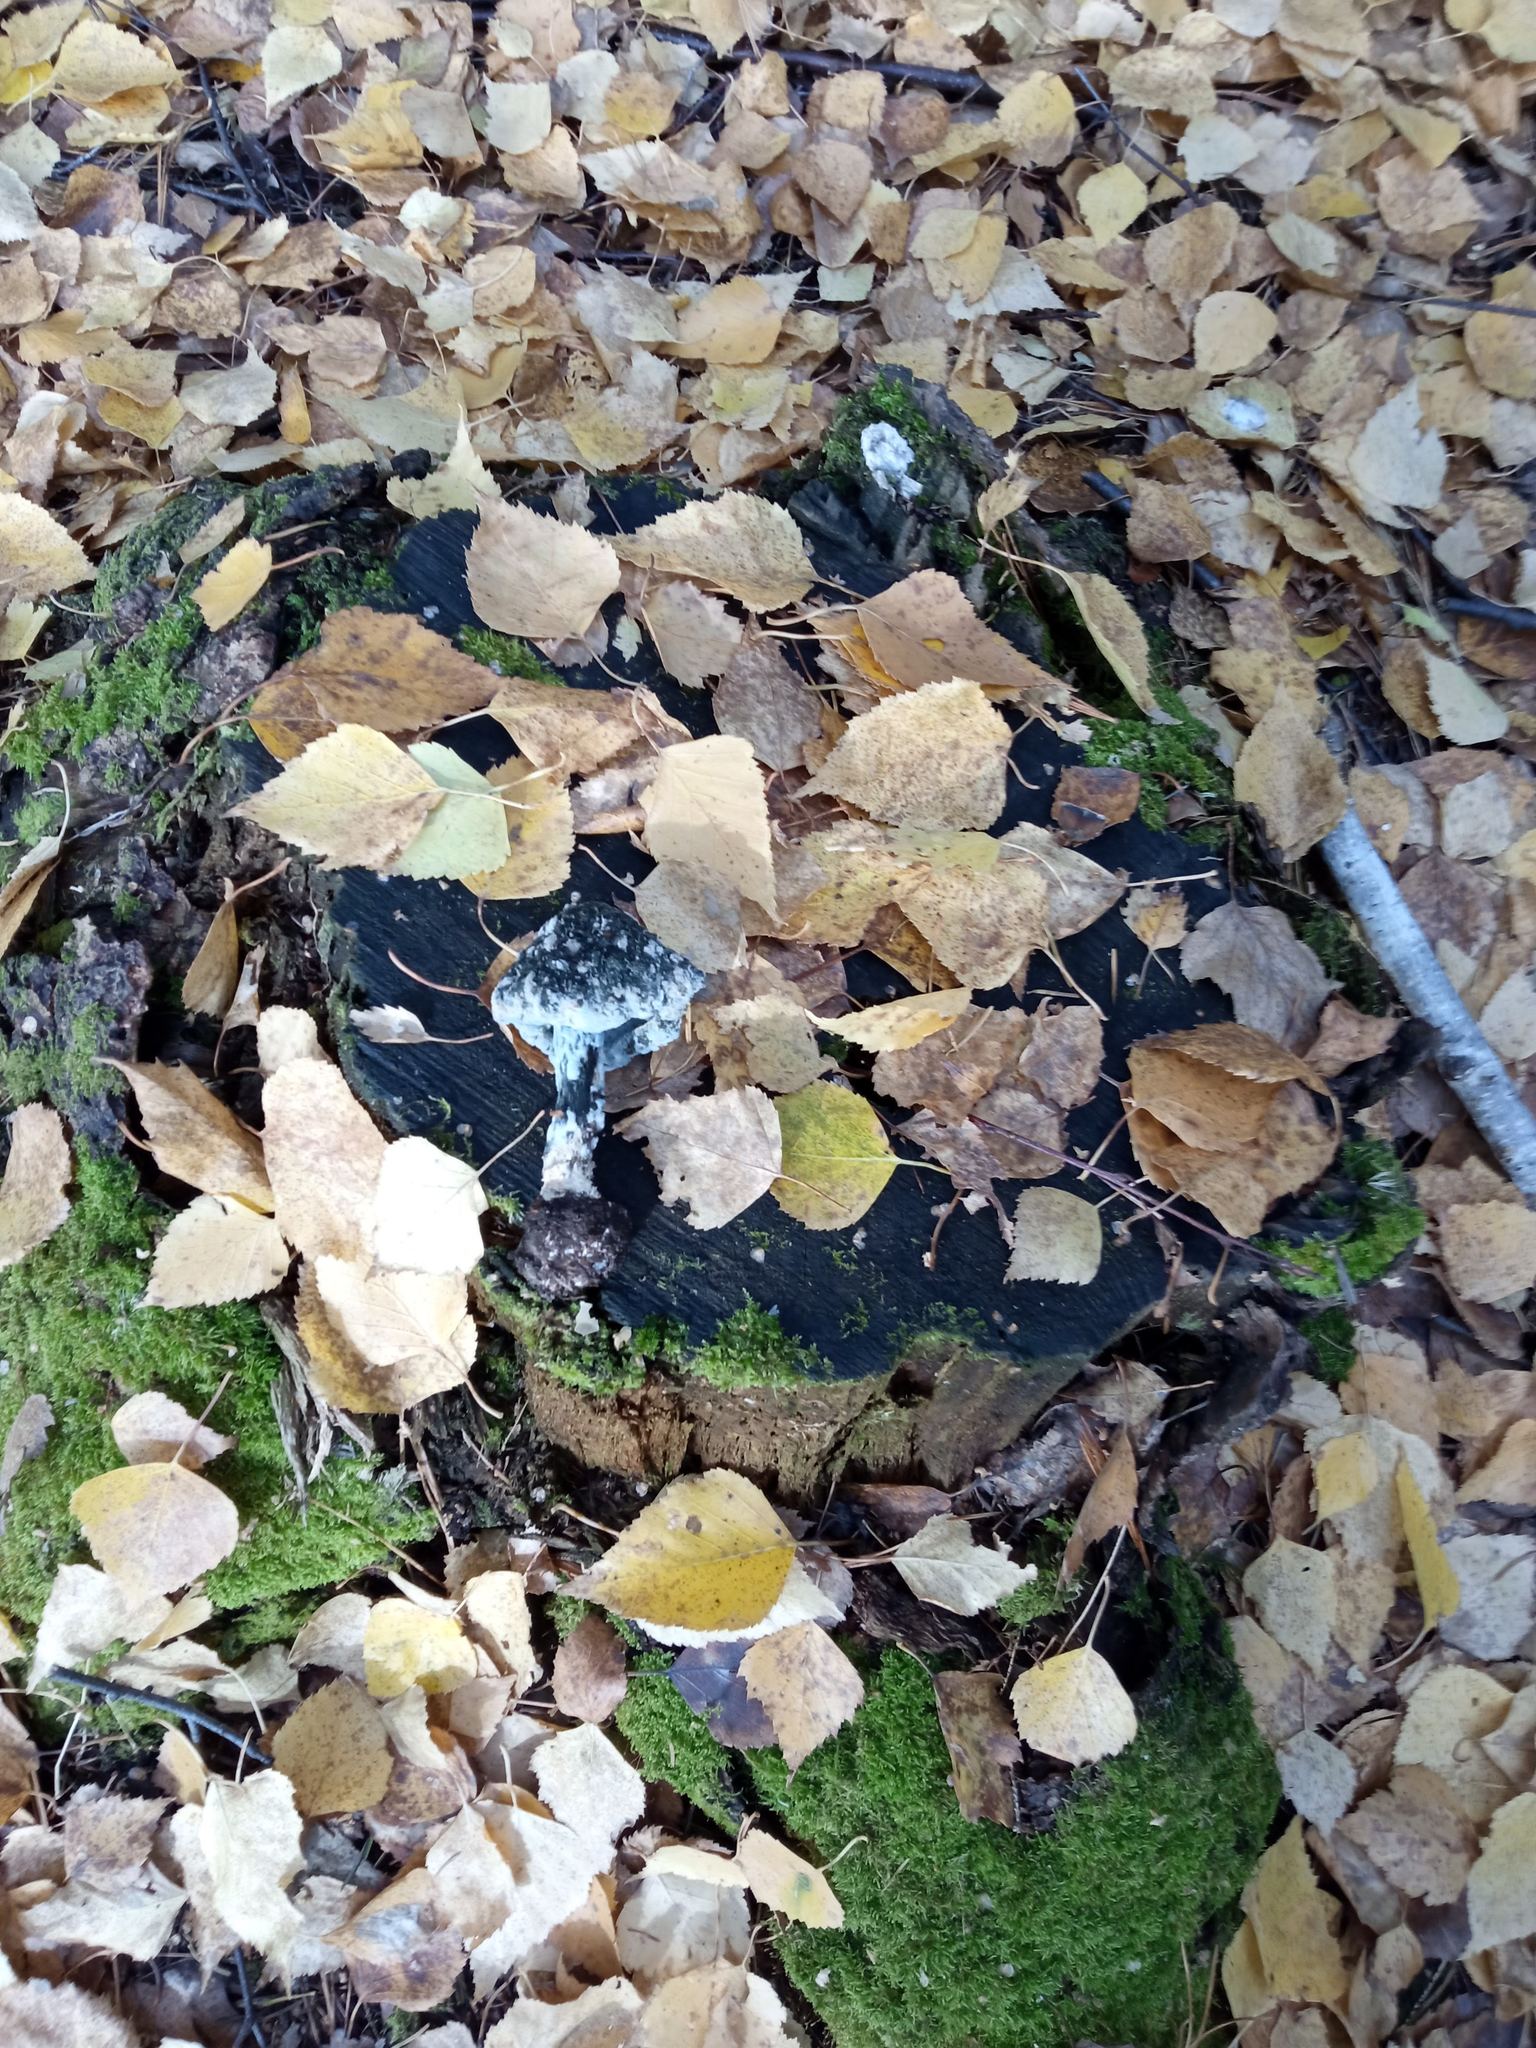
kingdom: Plantae
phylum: Tracheophyta
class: Magnoliopsida
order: Ericales
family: Ericaceae
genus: Hypopitys
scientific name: Hypopitys monotropa
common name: Yellow bird's-nest
